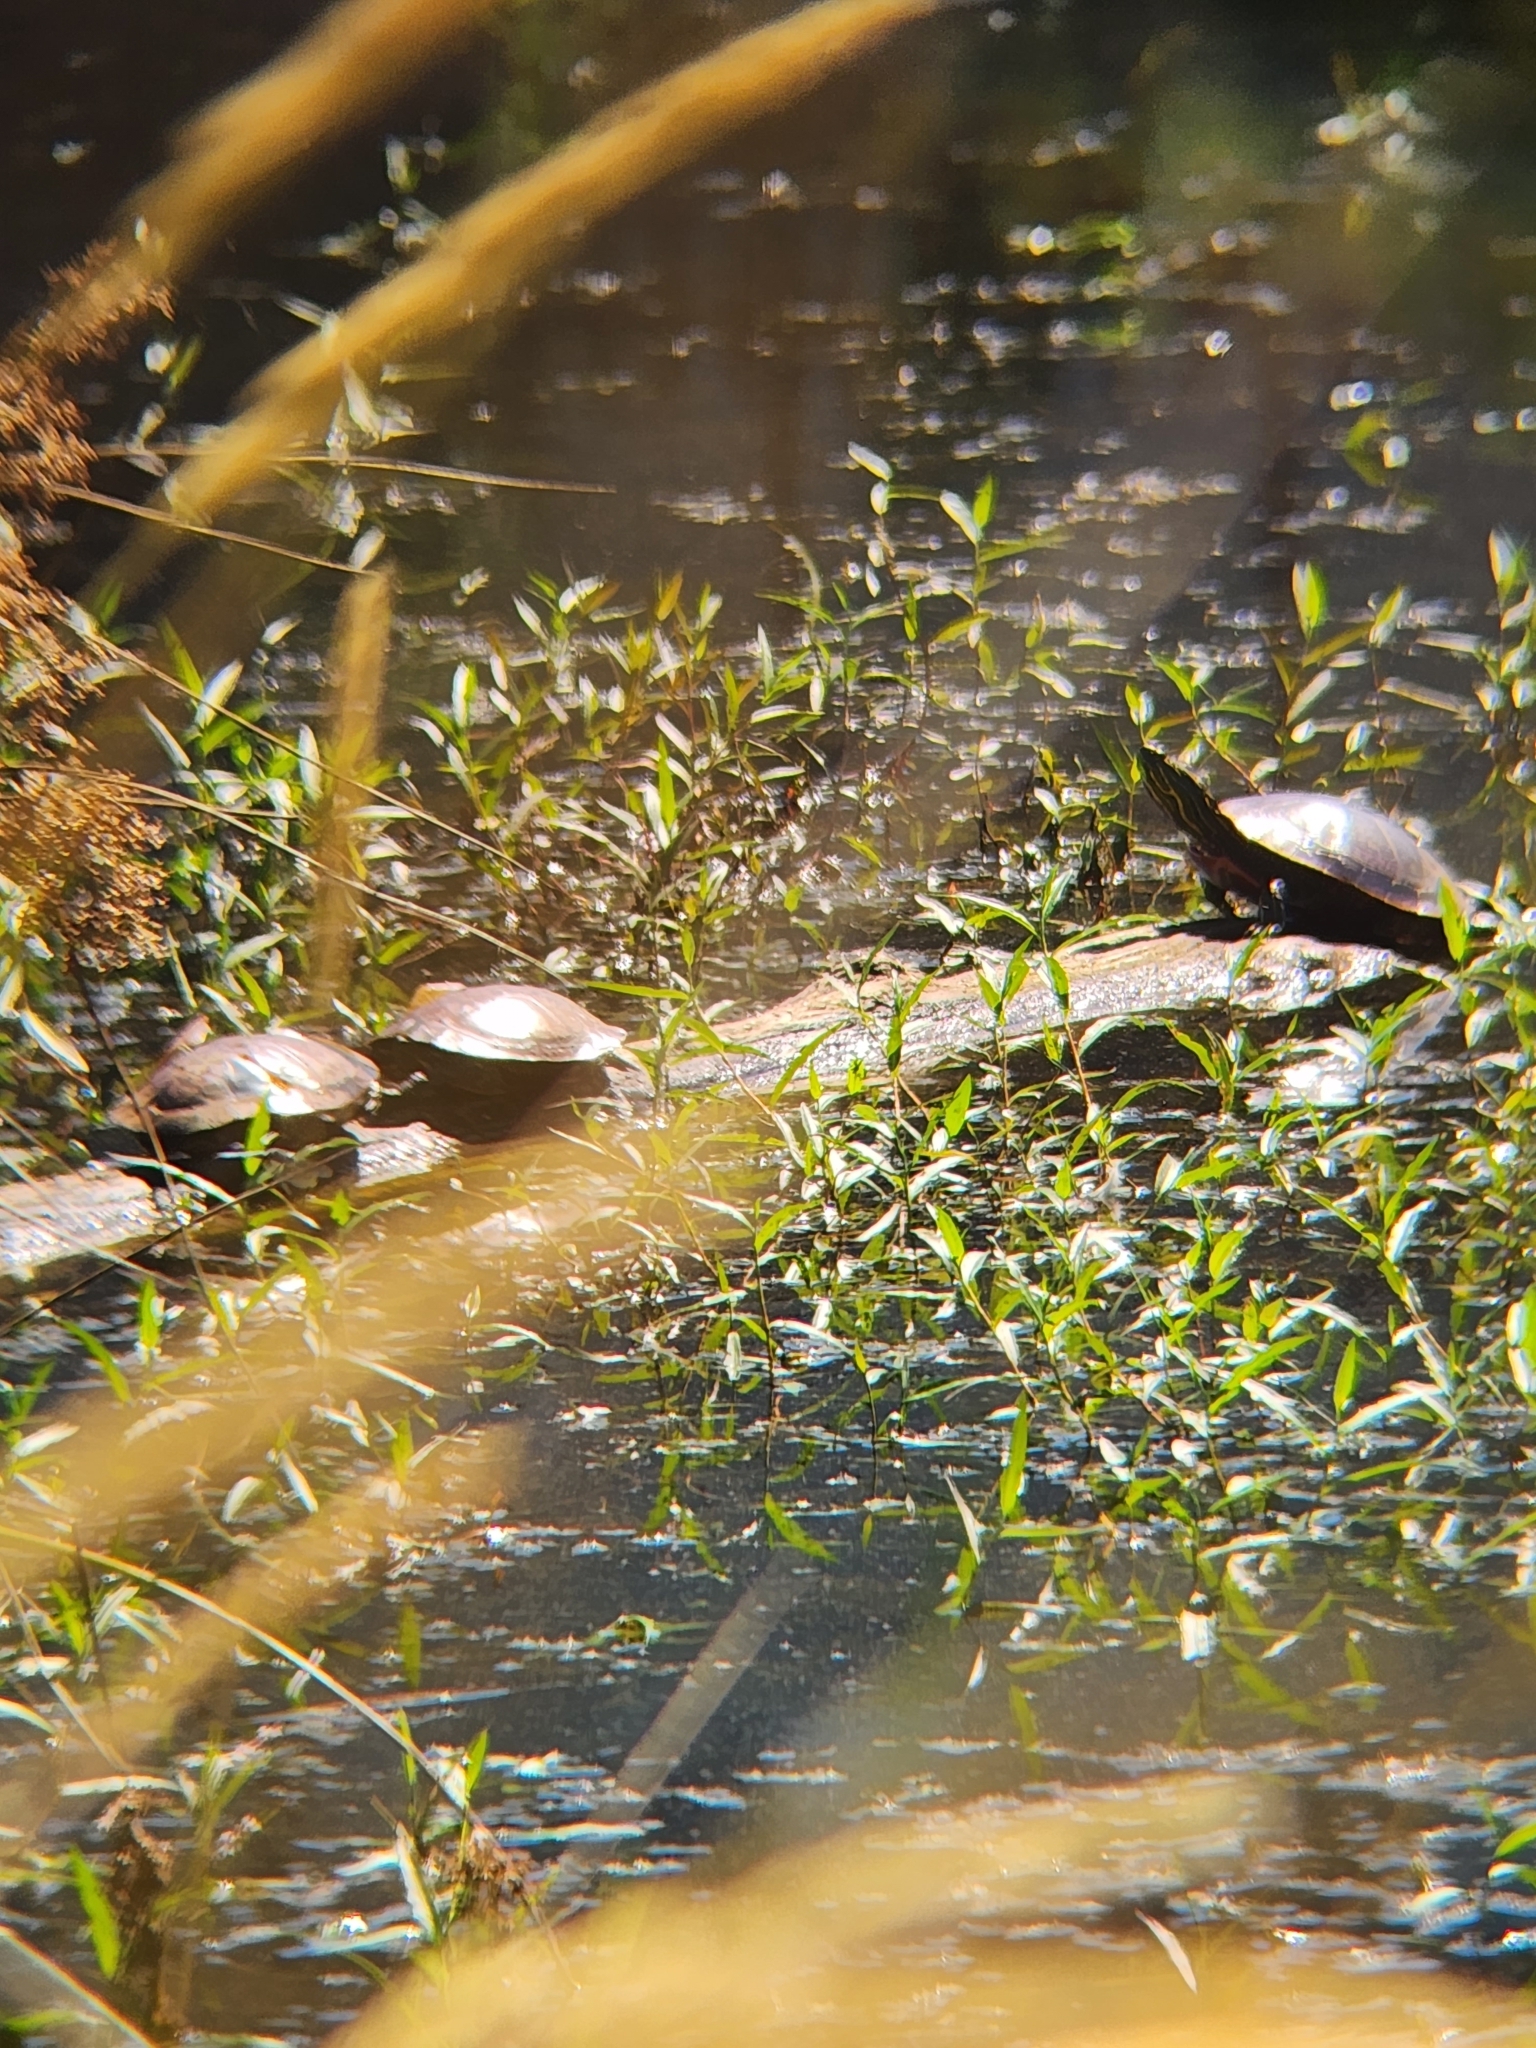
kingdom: Animalia
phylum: Chordata
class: Testudines
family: Emydidae
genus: Chrysemys
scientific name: Chrysemys picta
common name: Painted turtle
